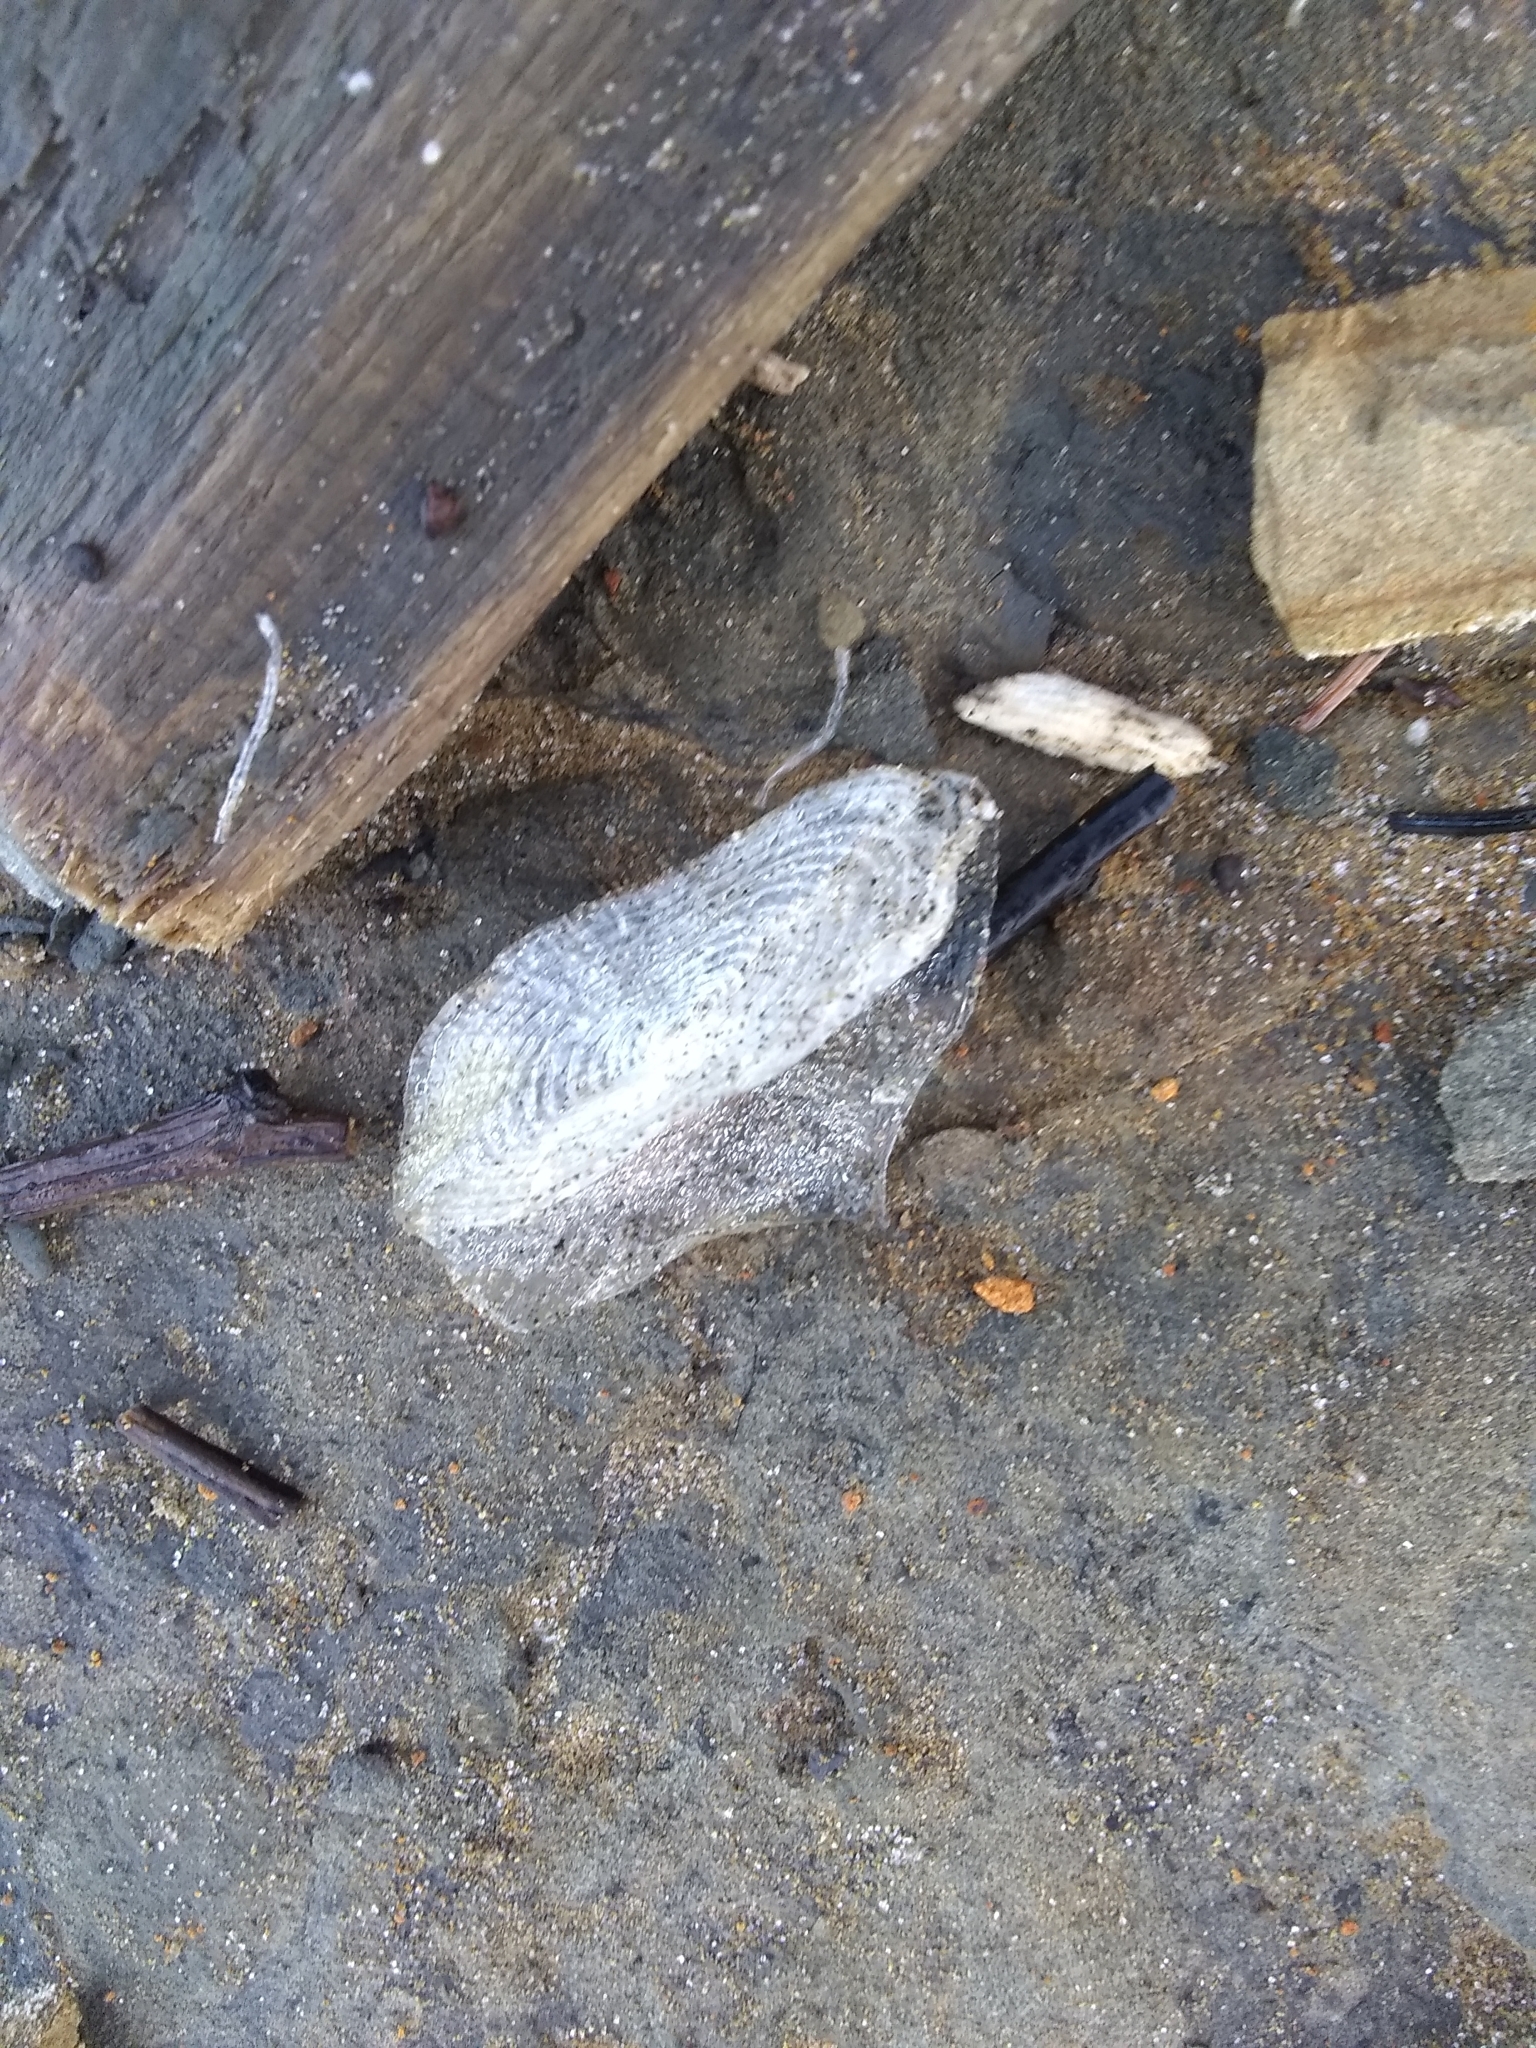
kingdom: Animalia
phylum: Cnidaria
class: Hydrozoa
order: Anthoathecata
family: Porpitidae
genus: Velella
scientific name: Velella velella
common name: By-the-wind-sailor
